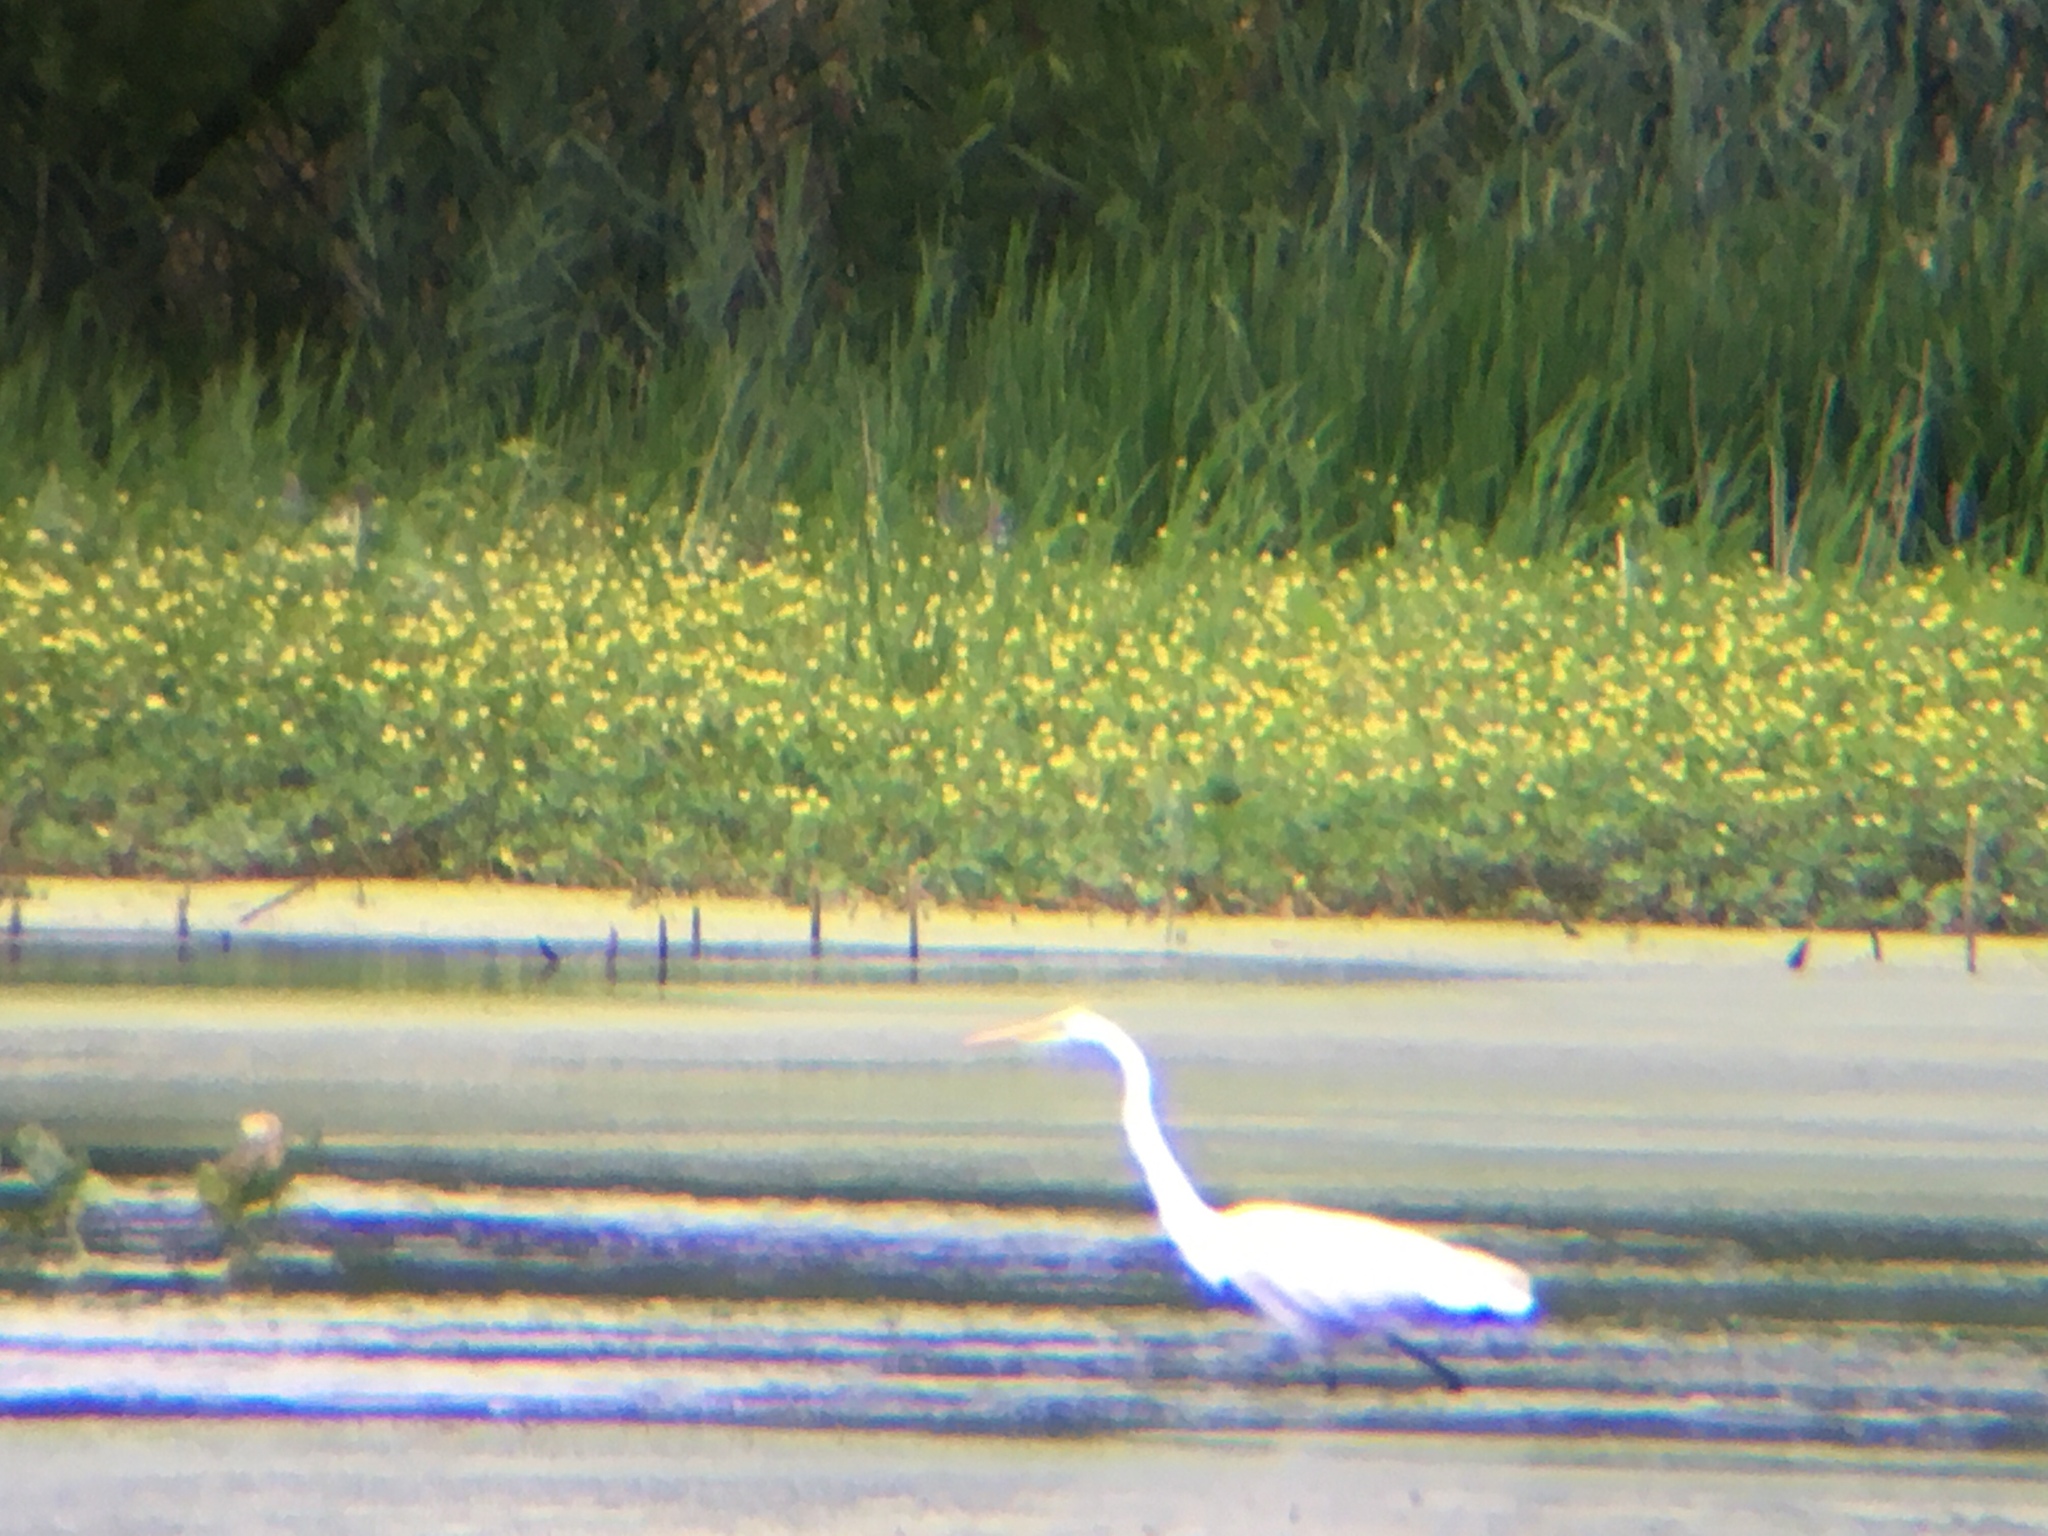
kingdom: Animalia
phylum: Chordata
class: Aves
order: Pelecaniformes
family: Ardeidae
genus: Ardea
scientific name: Ardea alba
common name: Great egret
